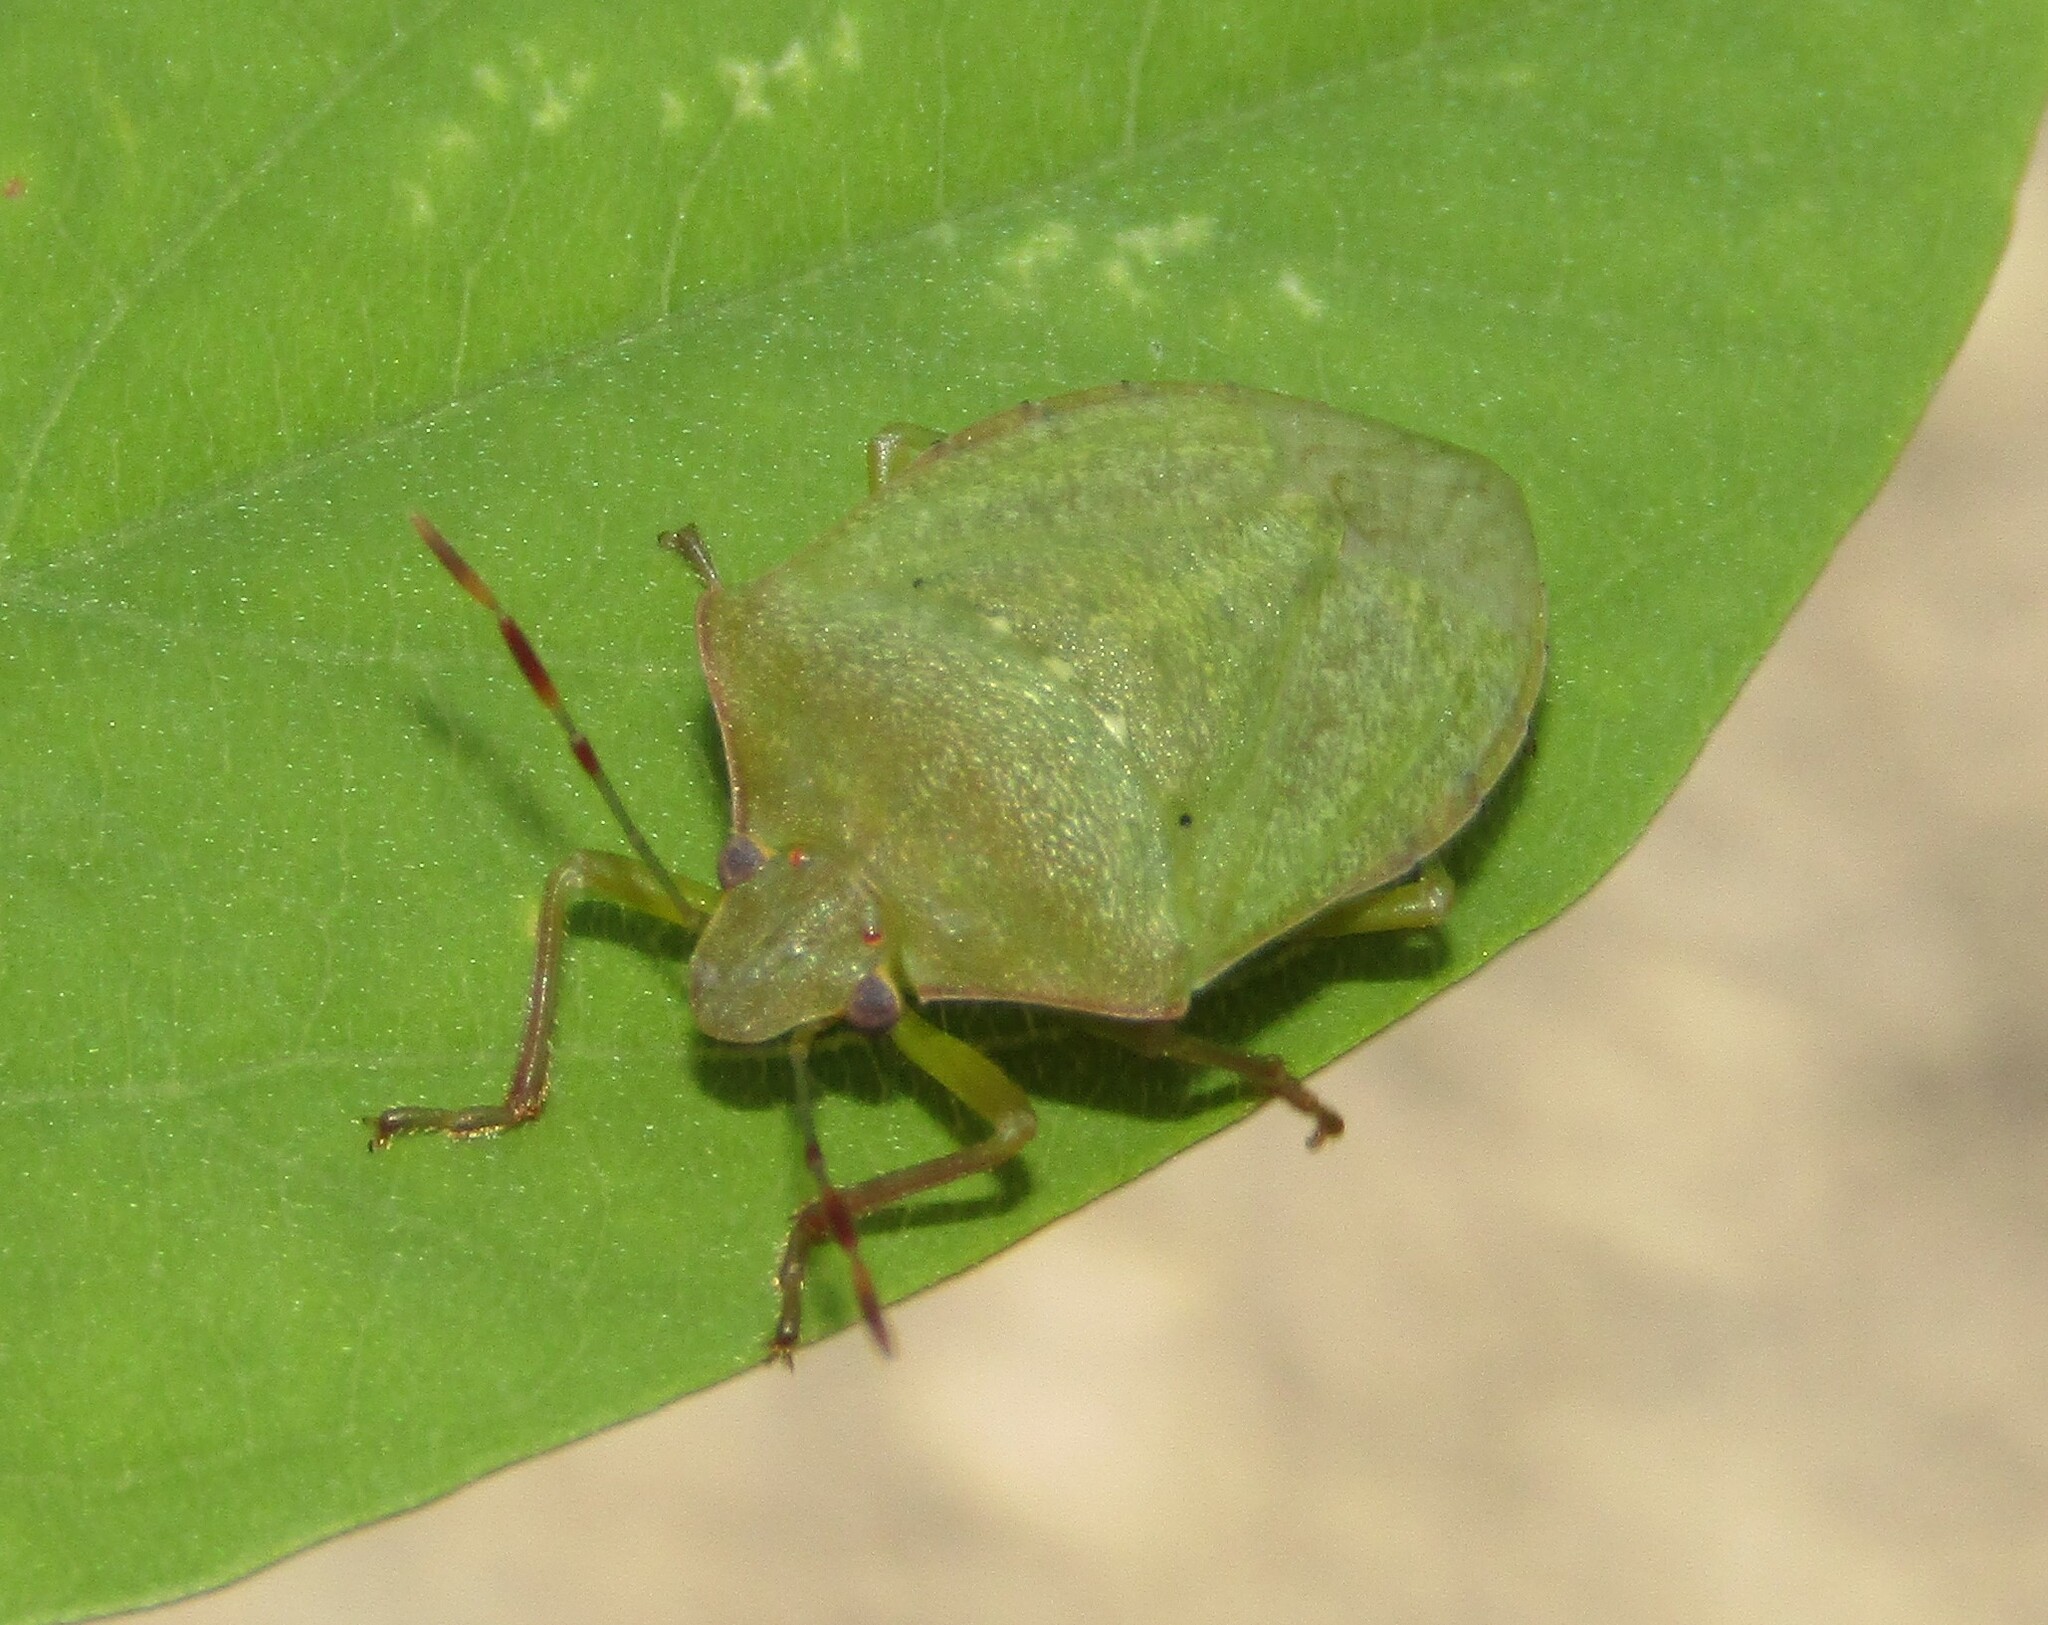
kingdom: Animalia
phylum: Arthropoda
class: Insecta
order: Hemiptera
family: Pentatomidae
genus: Nezara
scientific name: Nezara viridula
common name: Southern green stink bug
